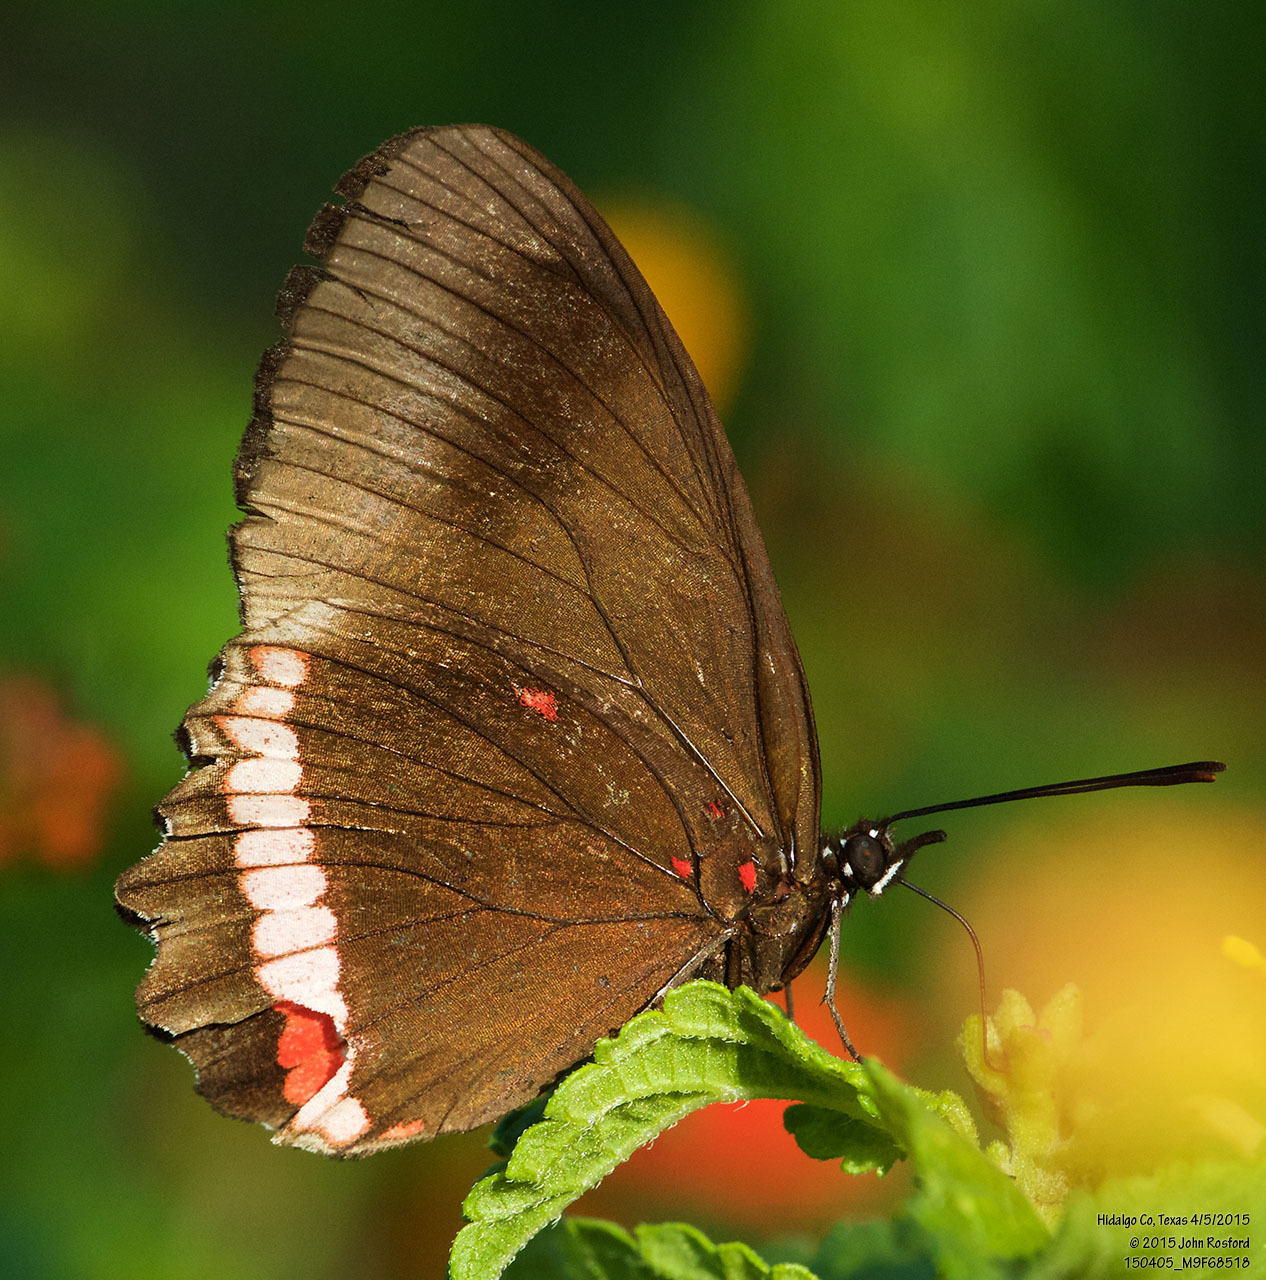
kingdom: Animalia
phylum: Arthropoda
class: Insecta
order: Lepidoptera
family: Nymphalidae
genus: Biblis
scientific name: Biblis aganisa
